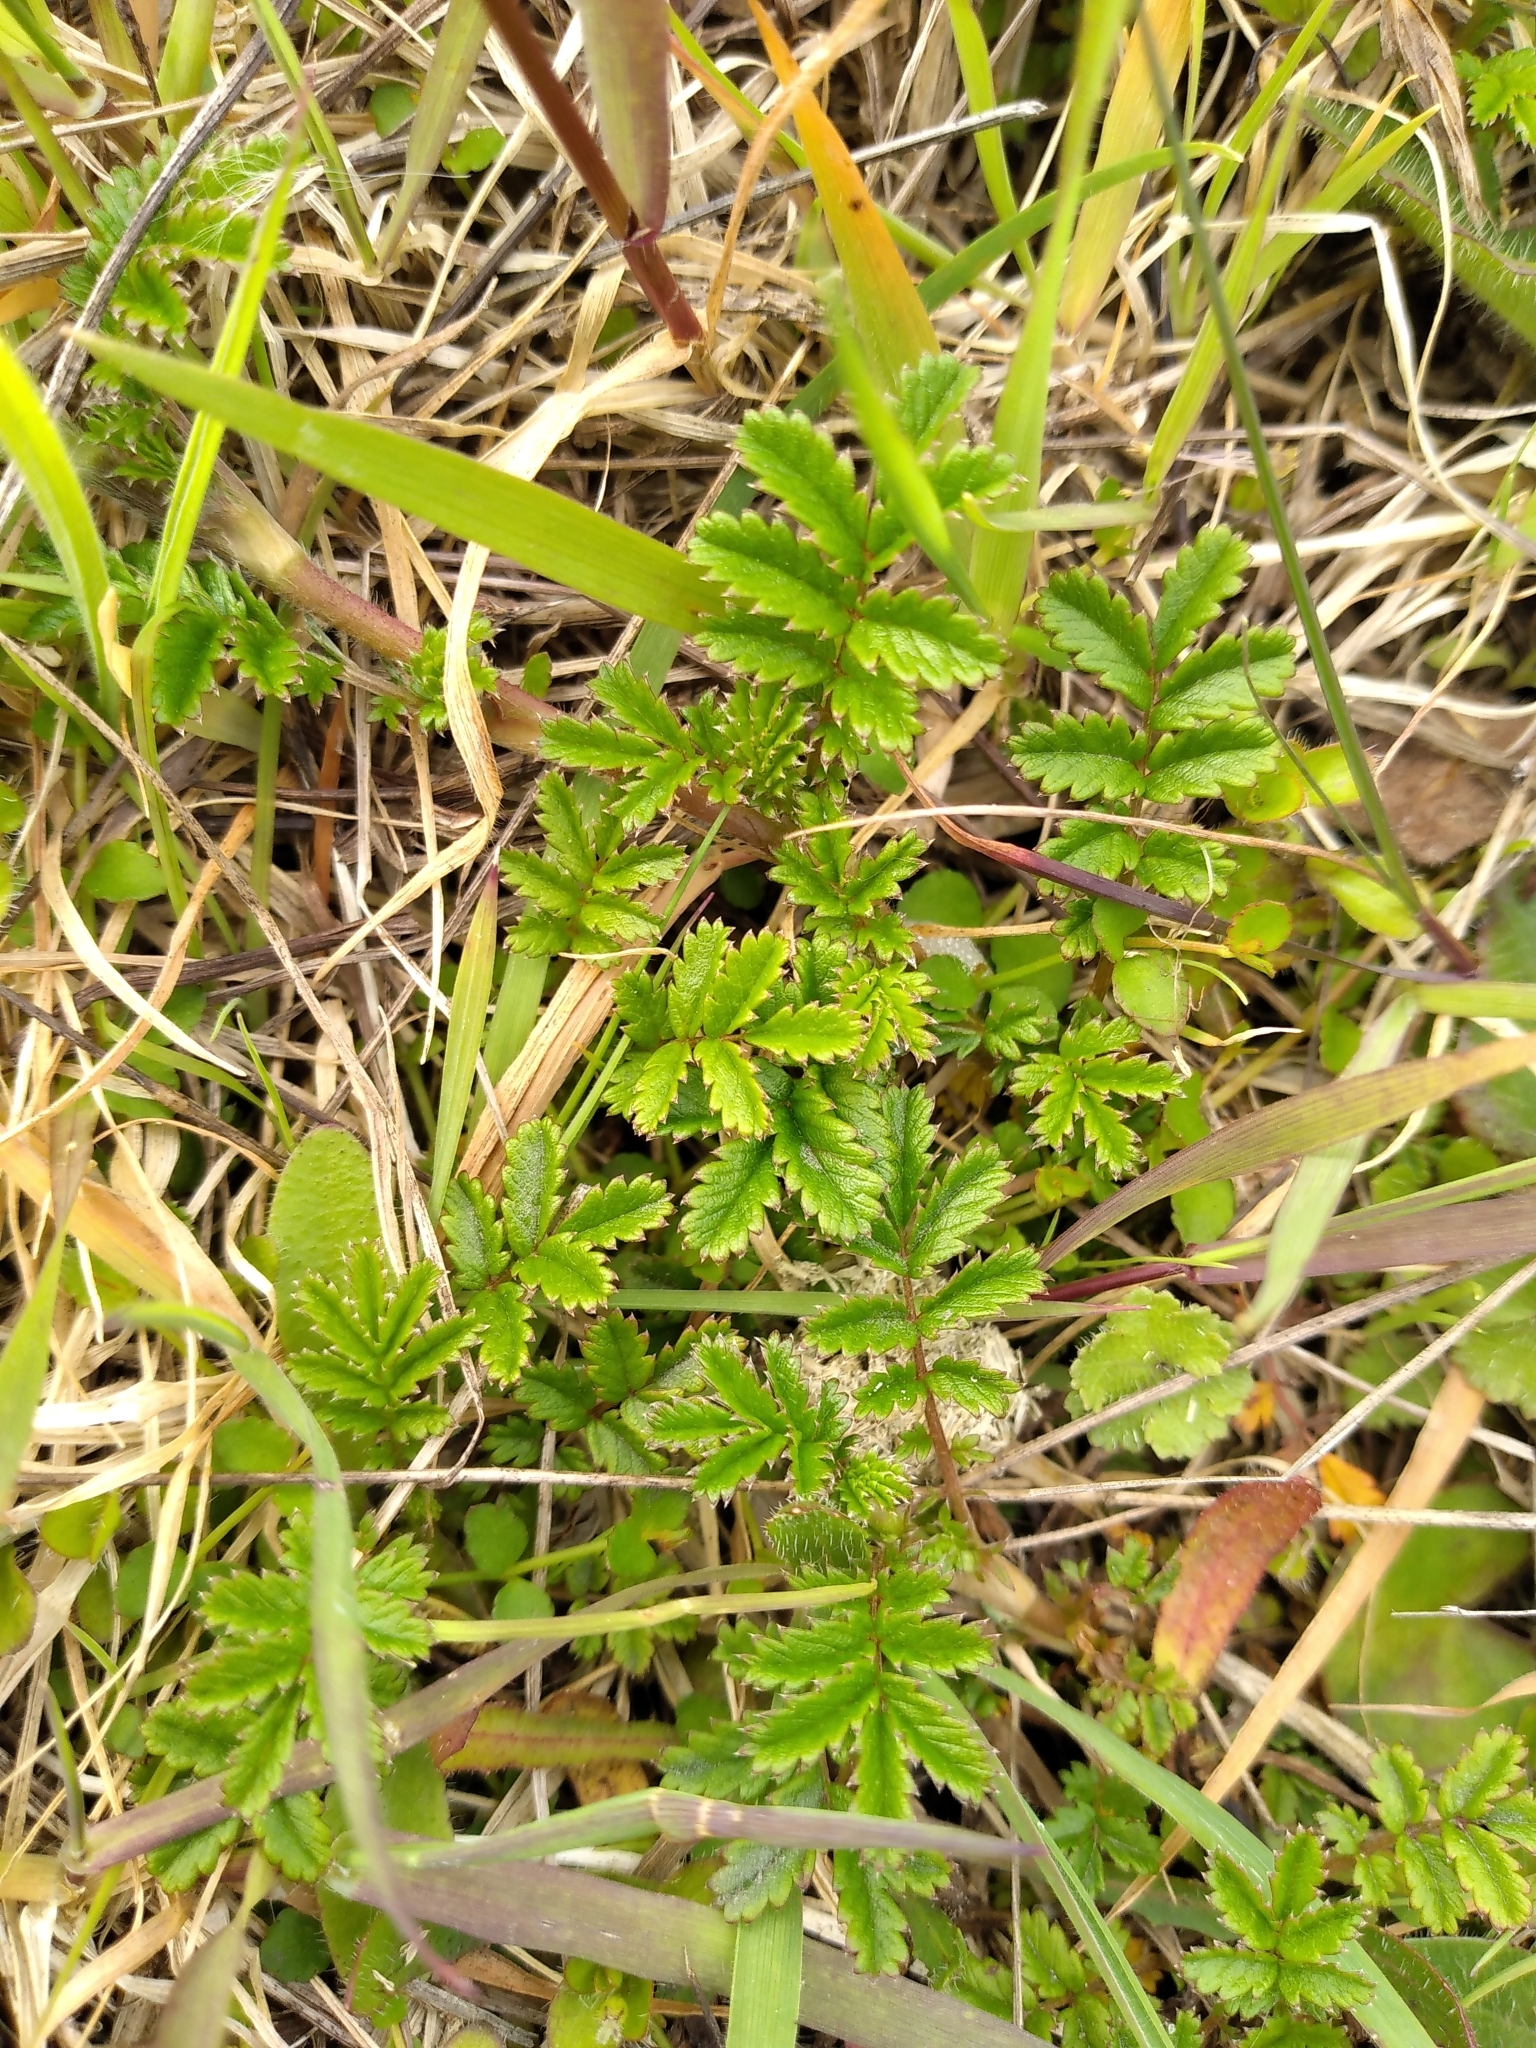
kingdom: Plantae
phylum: Tracheophyta
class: Magnoliopsida
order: Rosales
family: Rosaceae
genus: Acaena
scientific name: Acaena novae-zelandiae
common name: Pirri-pirri-bur
